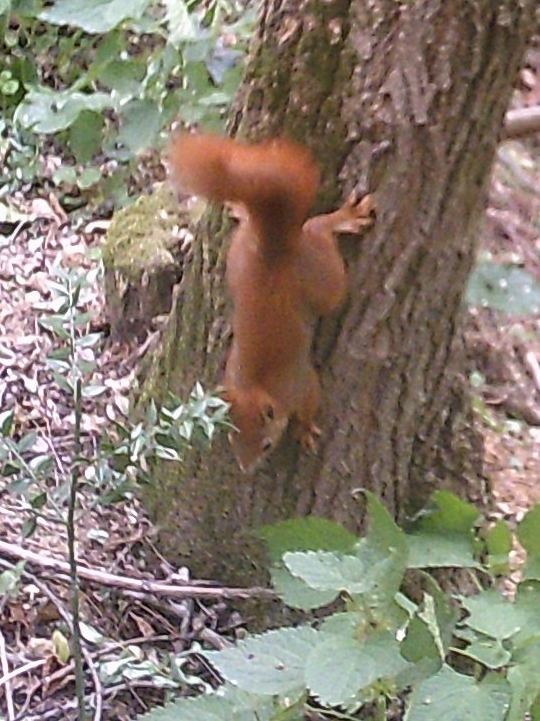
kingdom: Animalia
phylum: Chordata
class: Mammalia
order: Rodentia
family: Sciuridae
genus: Sciurus
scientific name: Sciurus vulgaris
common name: Eurasian red squirrel
